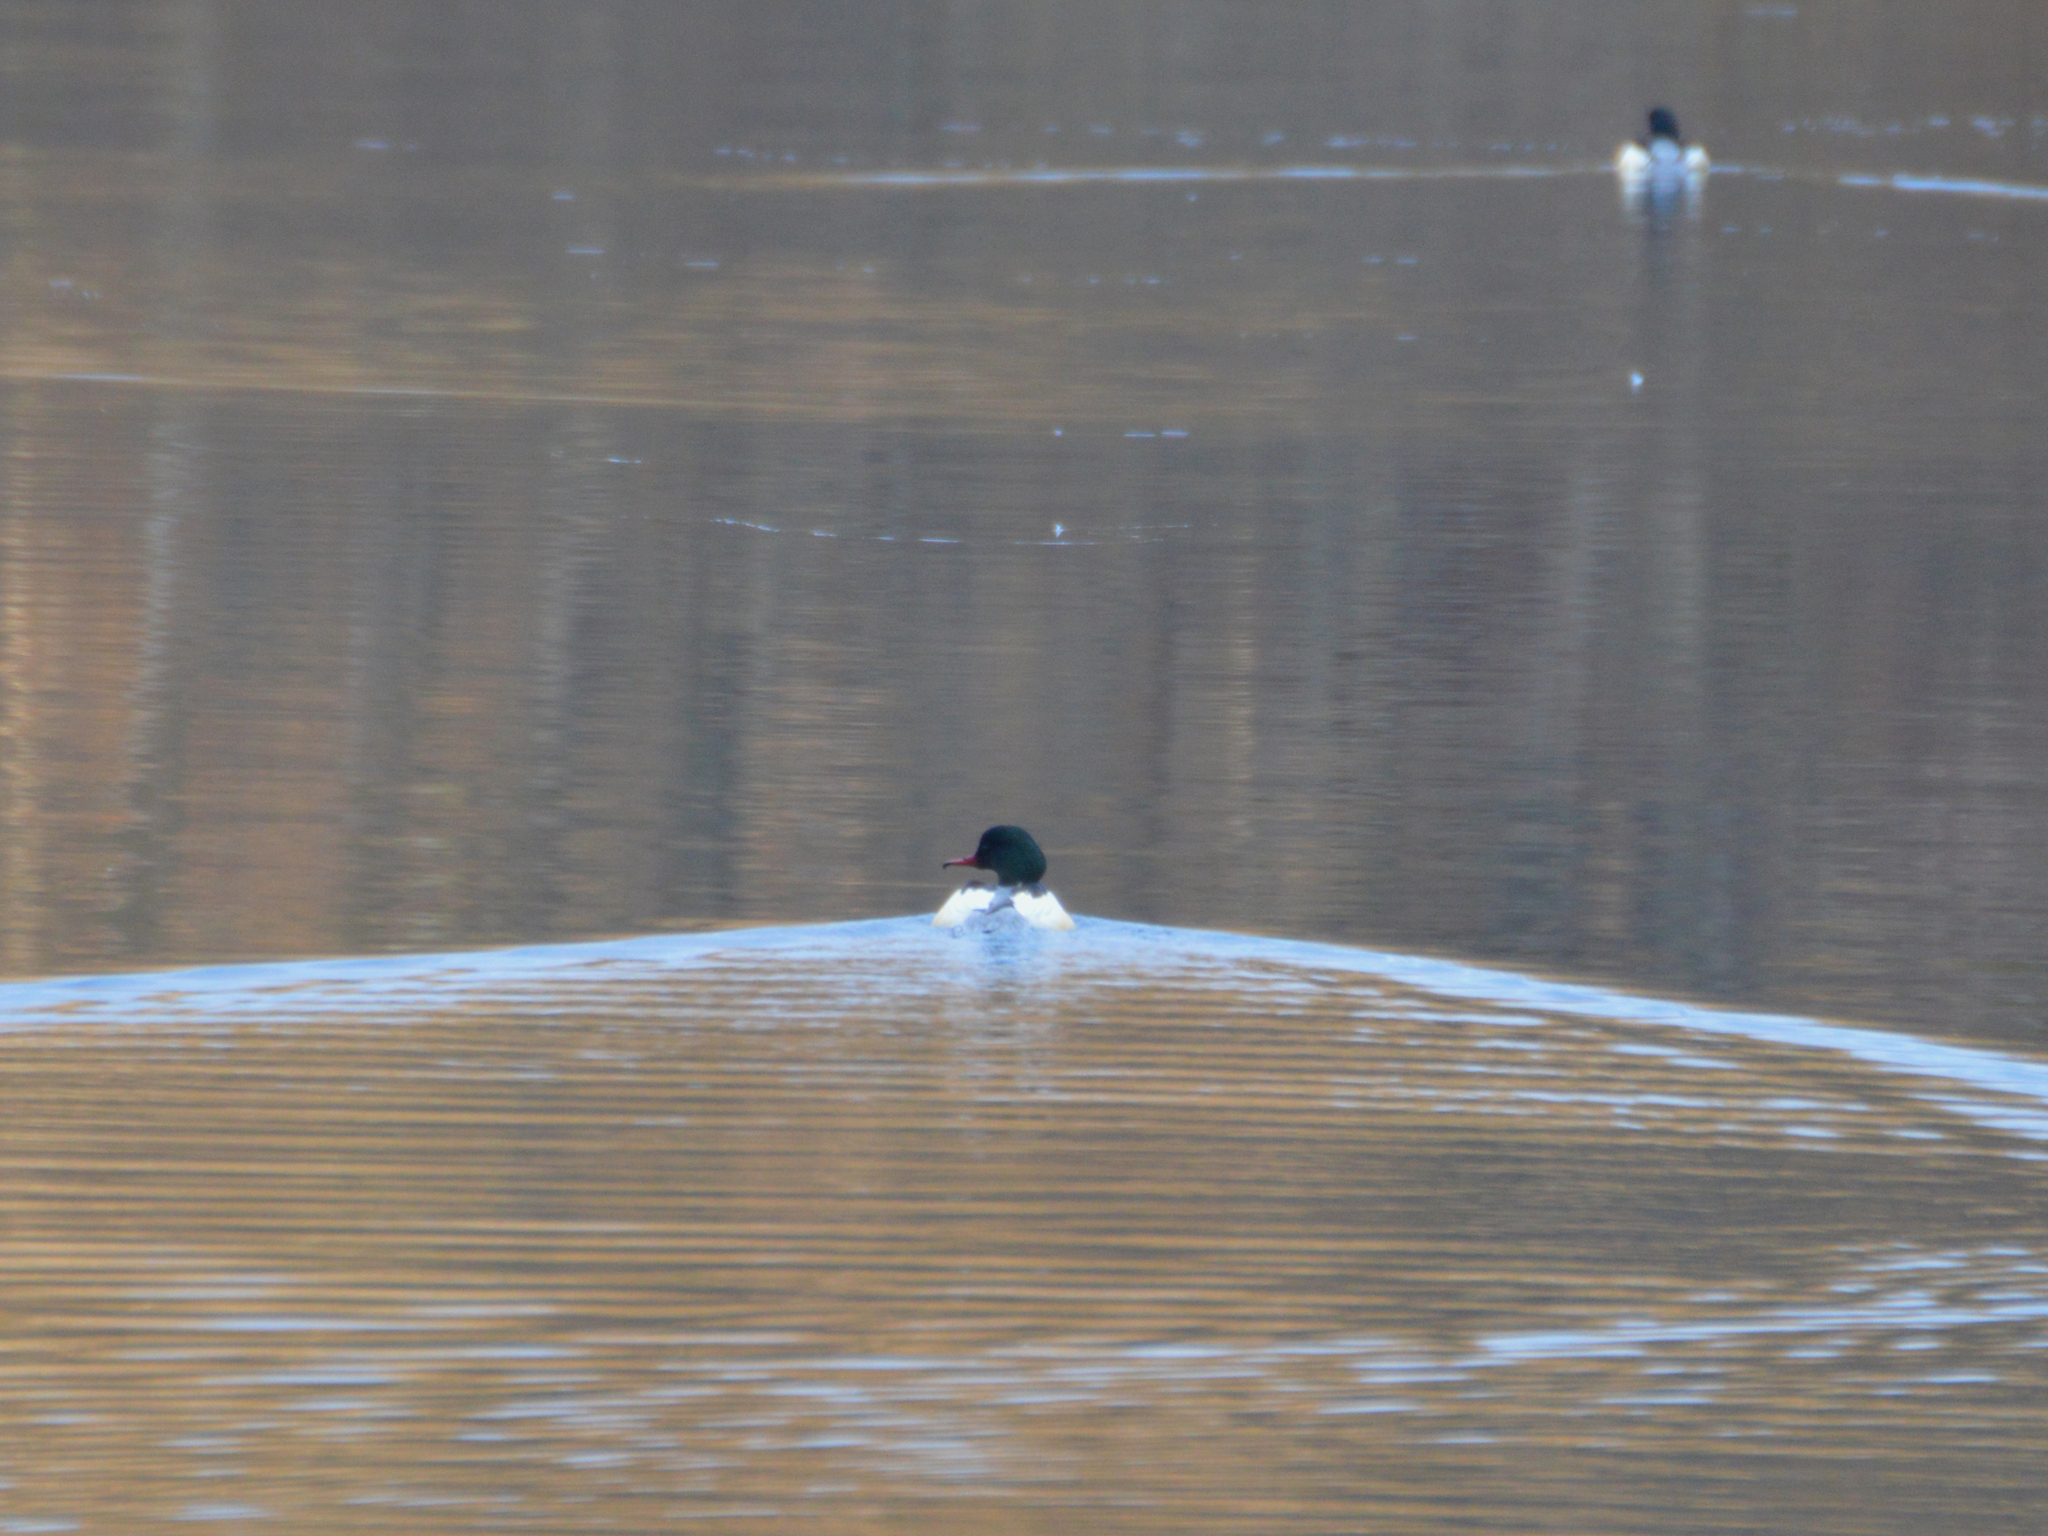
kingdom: Animalia
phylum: Chordata
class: Aves
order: Anseriformes
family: Anatidae
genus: Mergus
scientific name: Mergus merganser
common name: Common merganser
